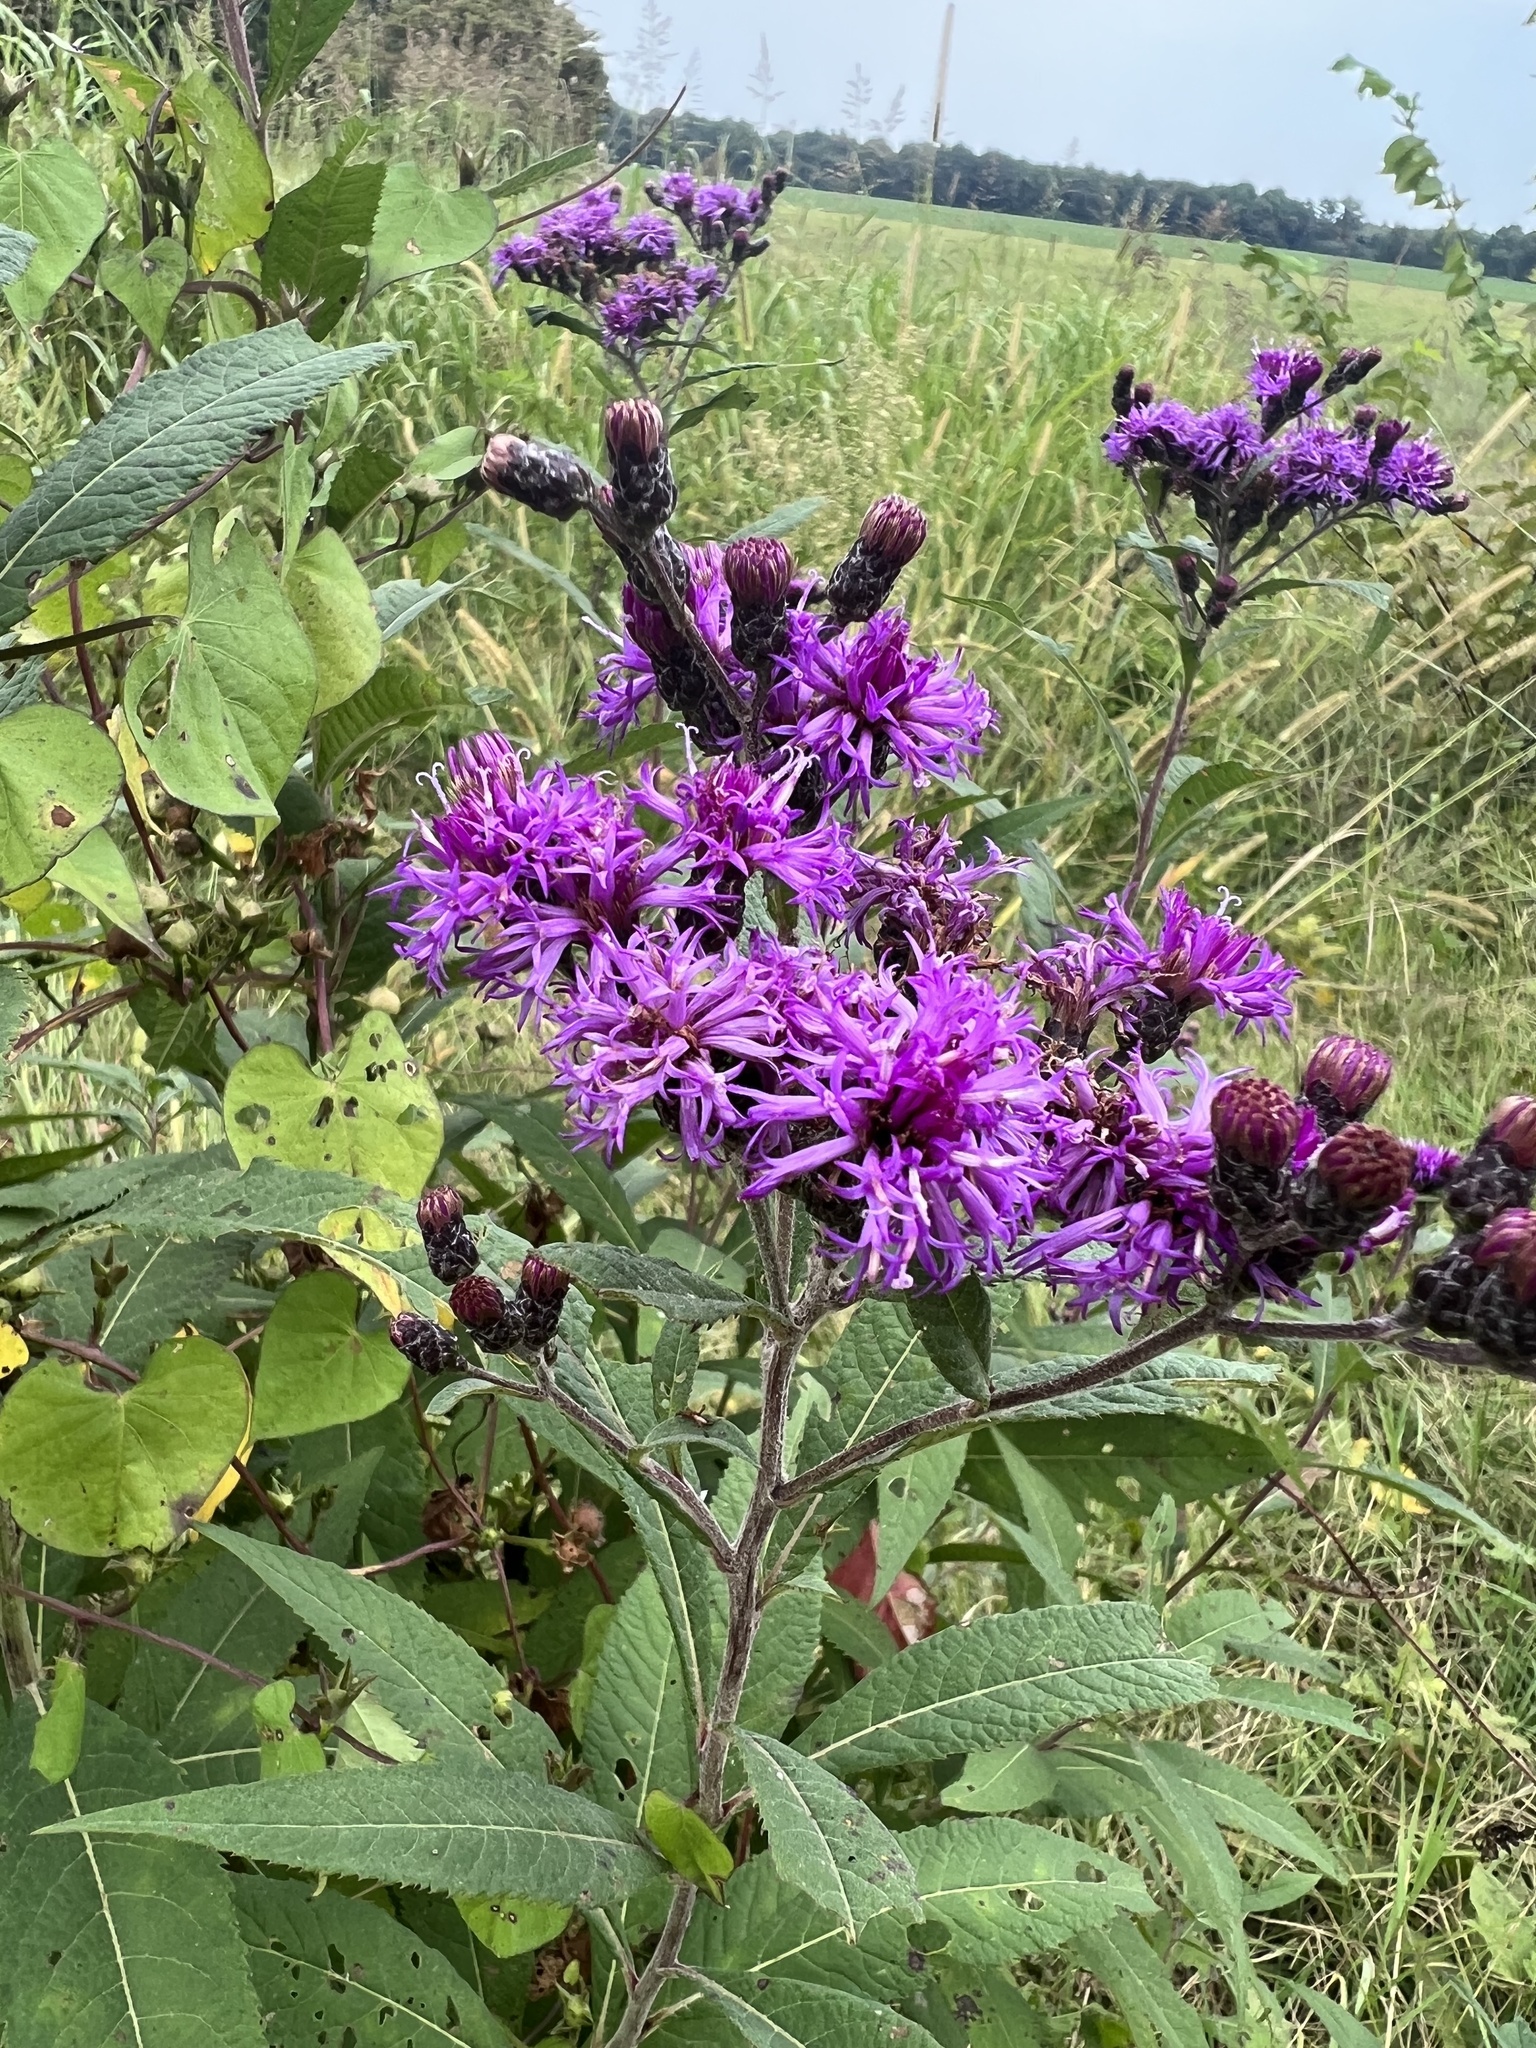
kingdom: Plantae
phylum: Tracheophyta
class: Magnoliopsida
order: Asterales
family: Asteraceae
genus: Vernonia
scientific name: Vernonia gigantea
